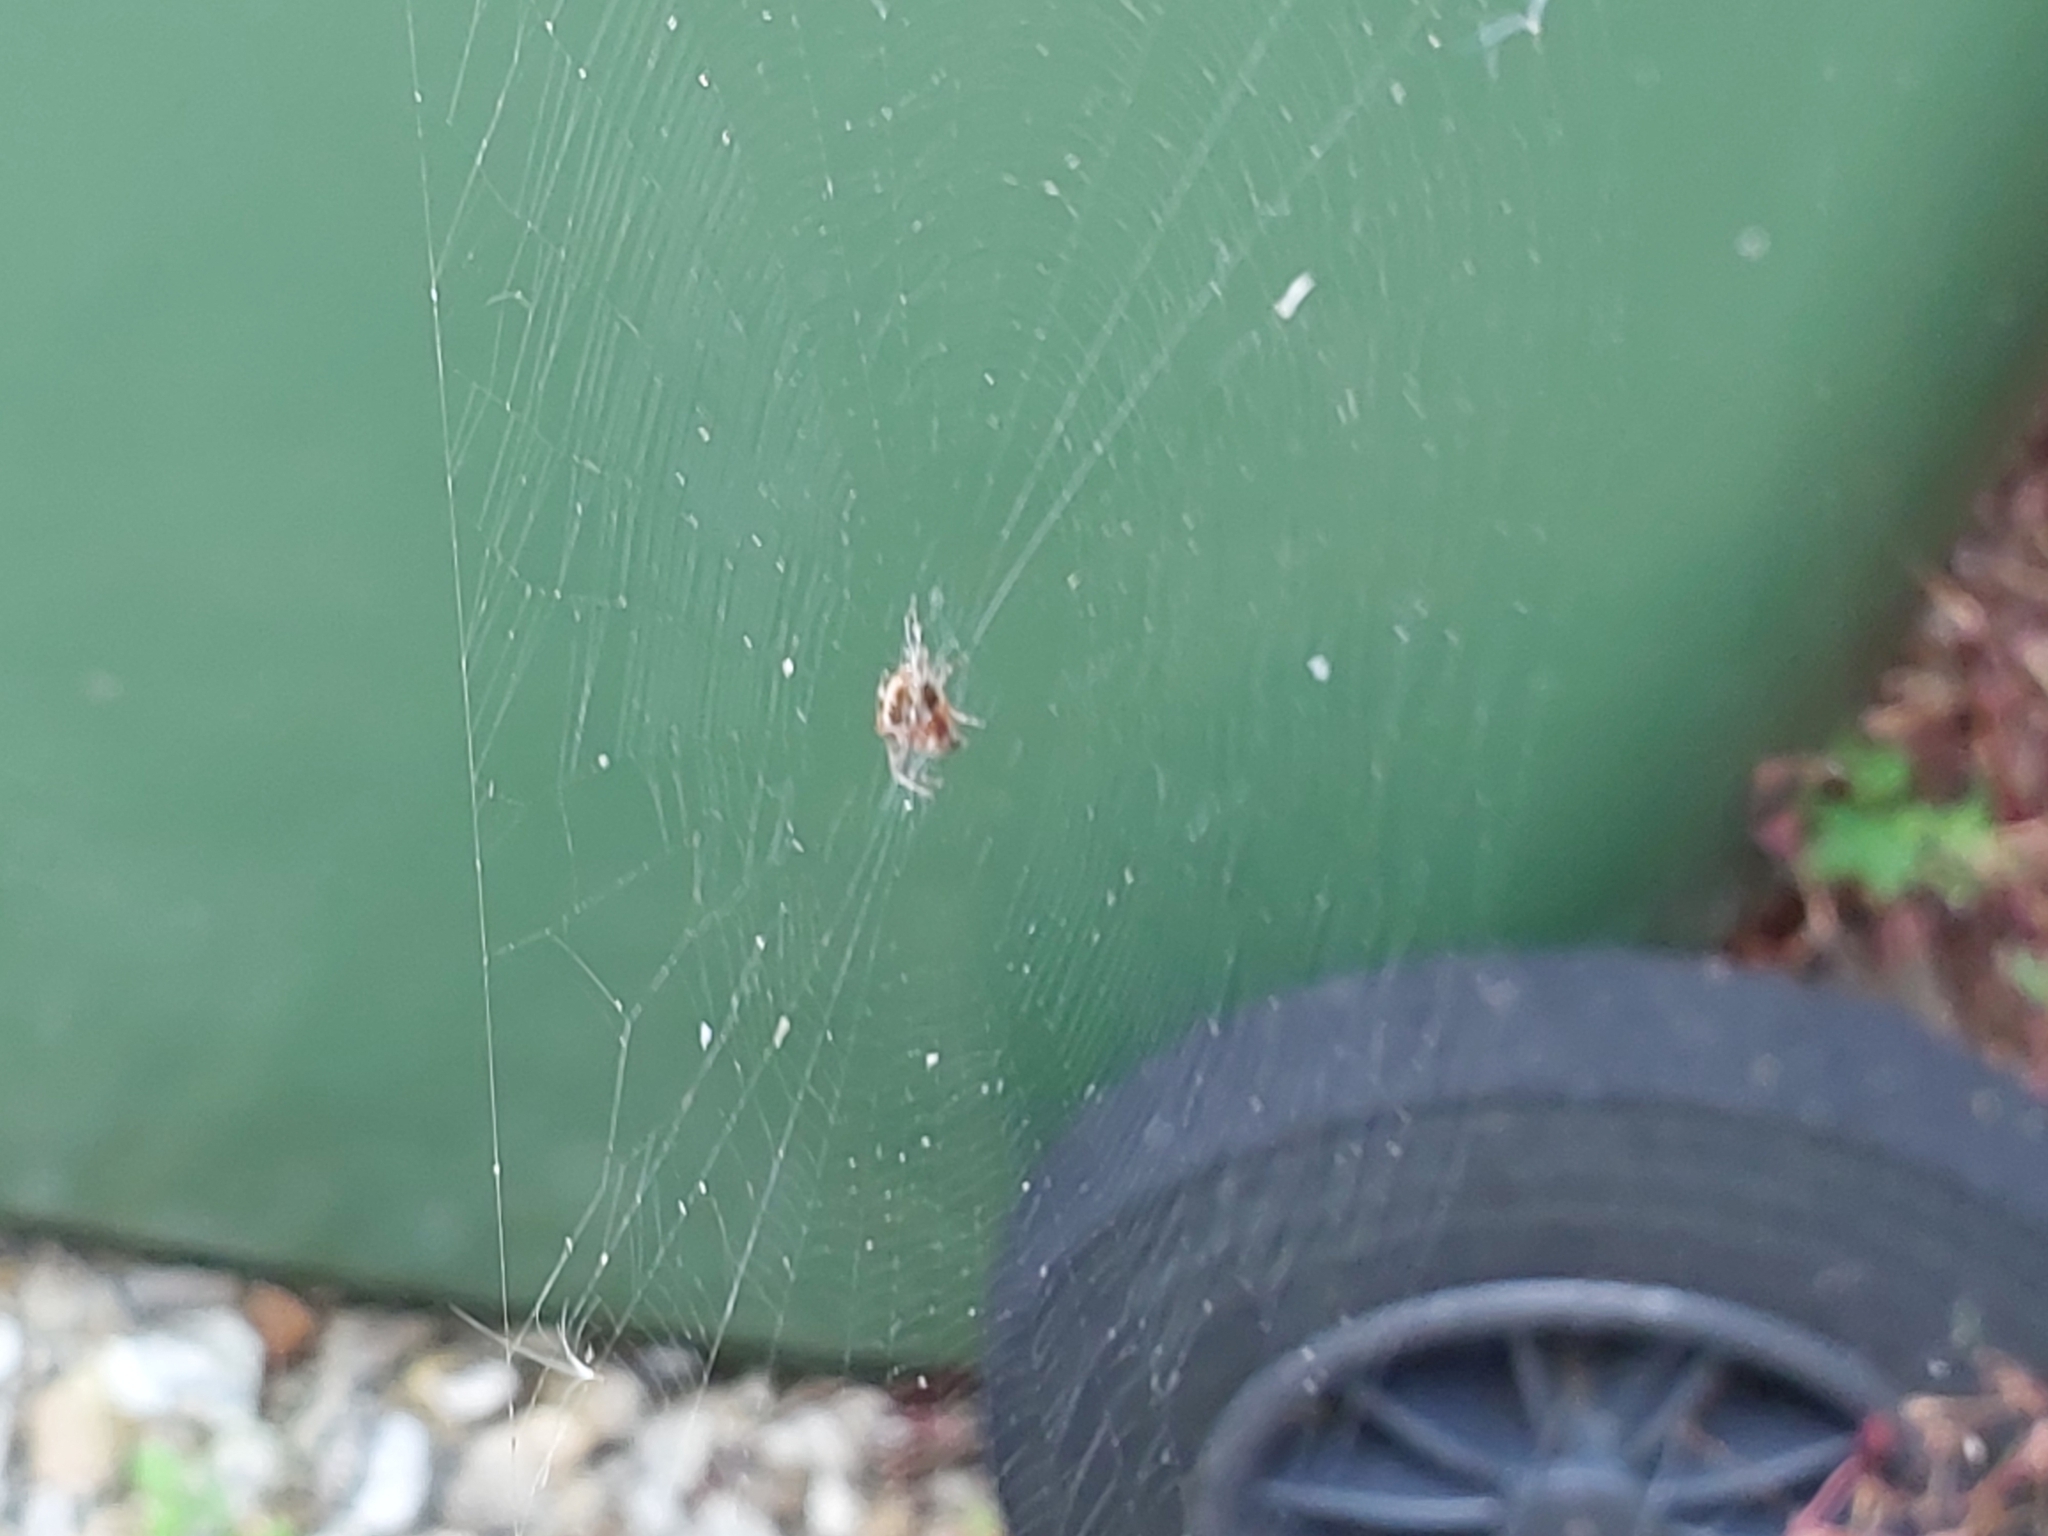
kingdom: Animalia
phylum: Arthropoda
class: Arachnida
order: Araneae
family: Araneidae
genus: Araneus
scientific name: Araneus diadematus
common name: Cross orbweaver
